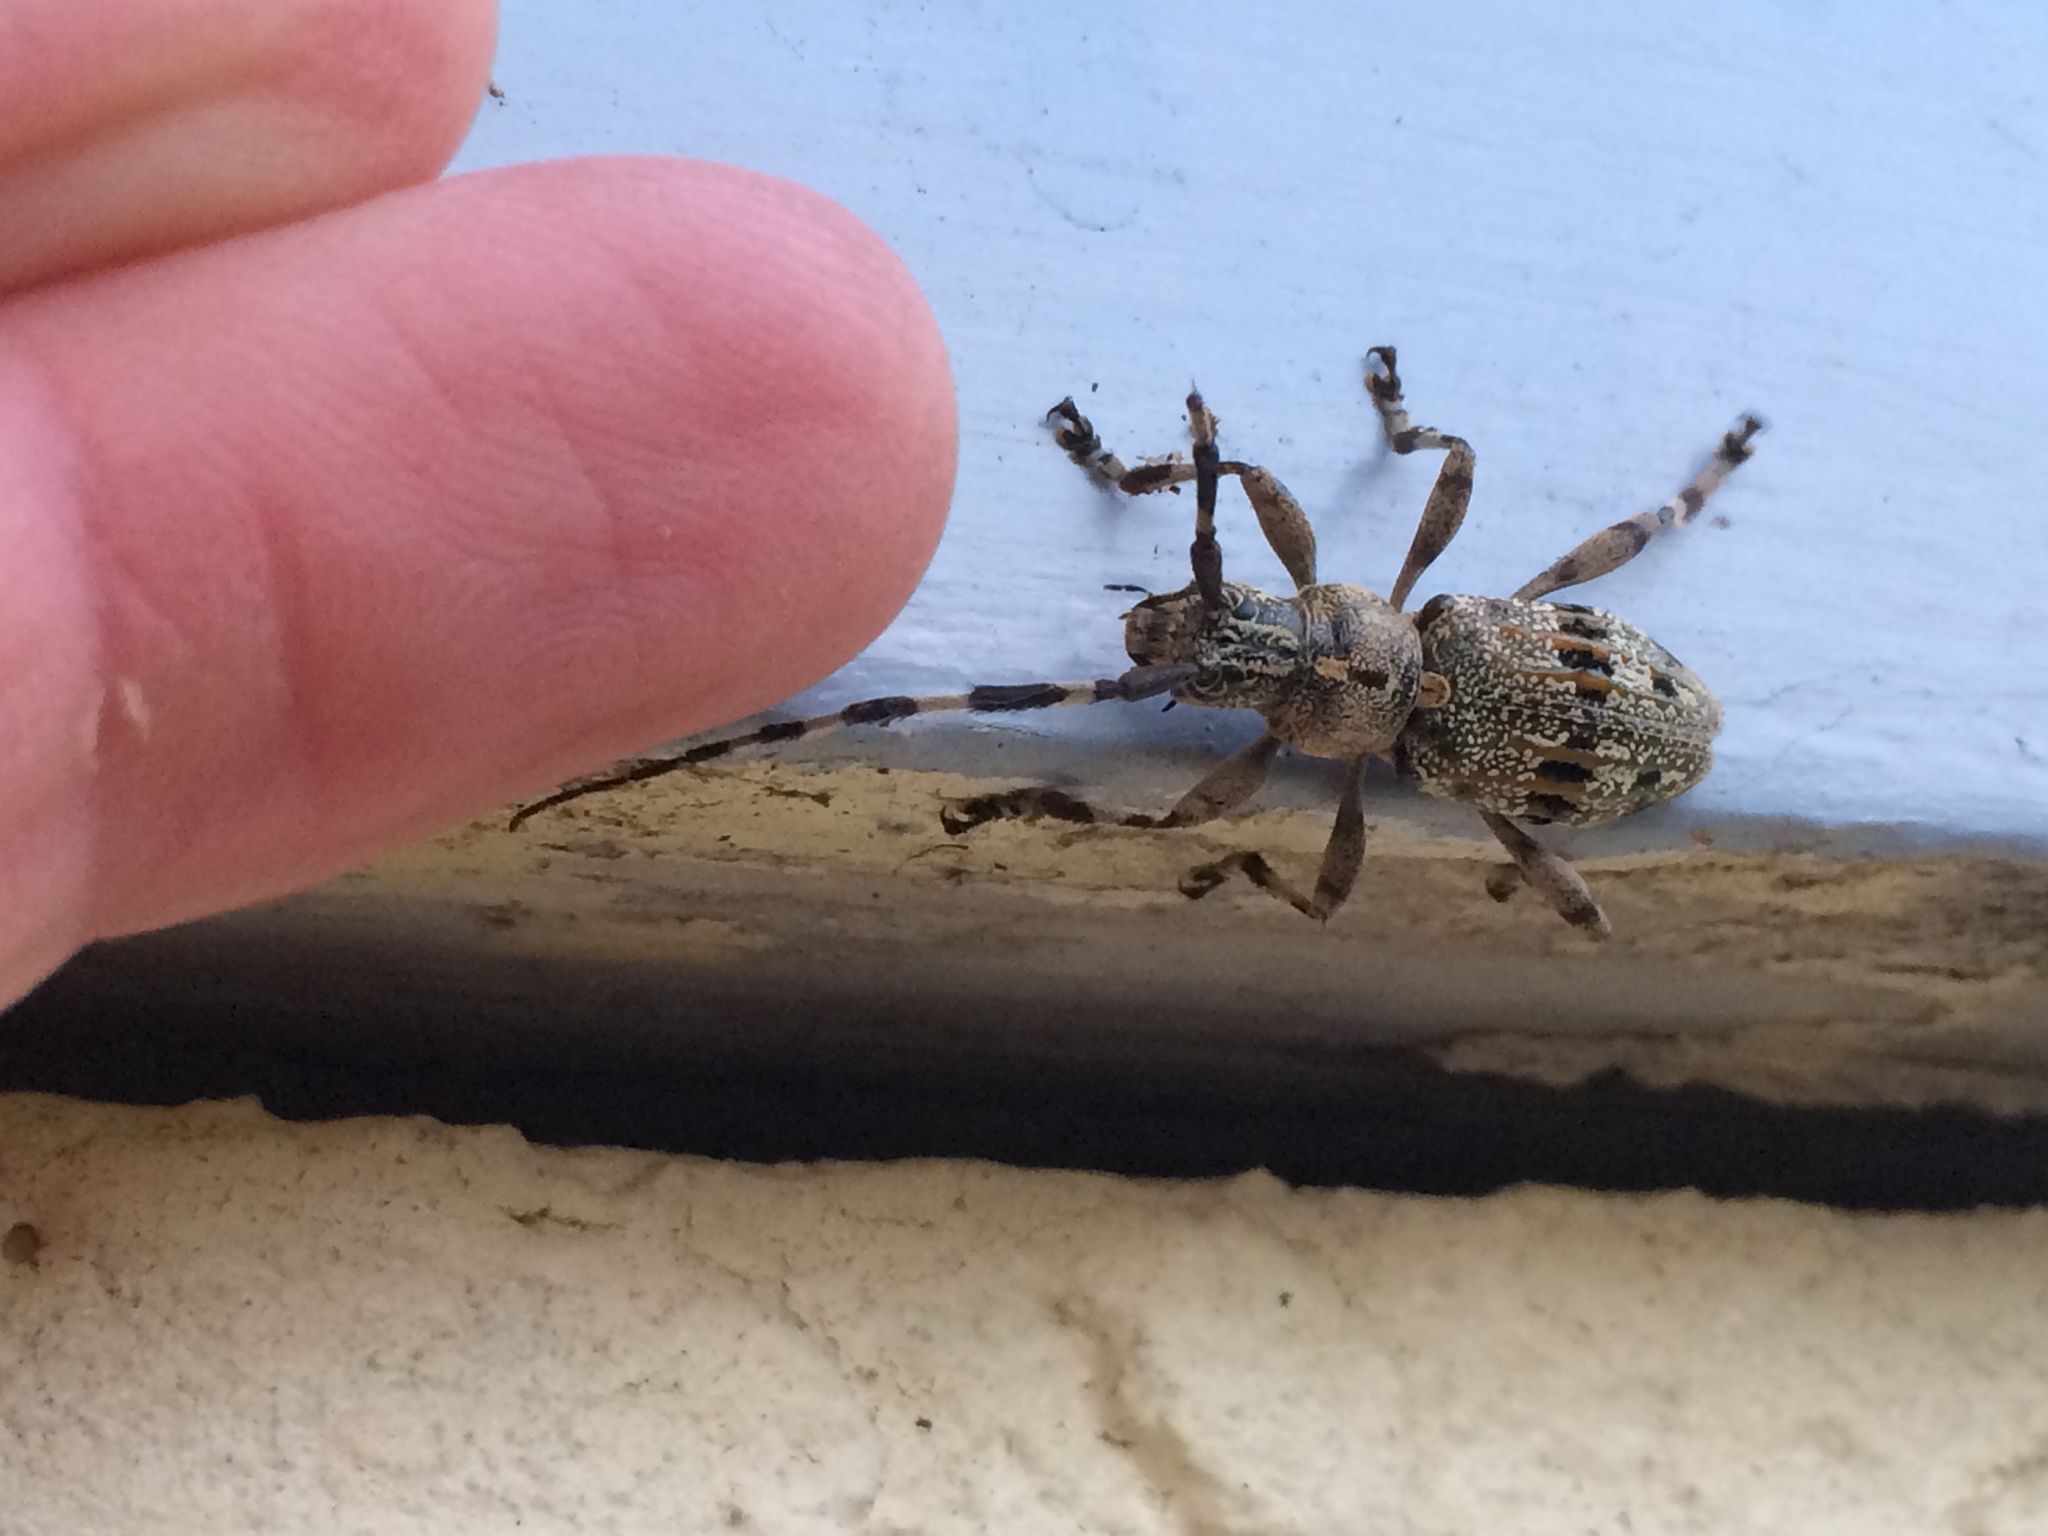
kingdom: Animalia
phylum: Arthropoda
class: Insecta
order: Coleoptera
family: Cerambycidae
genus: Hexatricha
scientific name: Hexatricha pulverulenta
